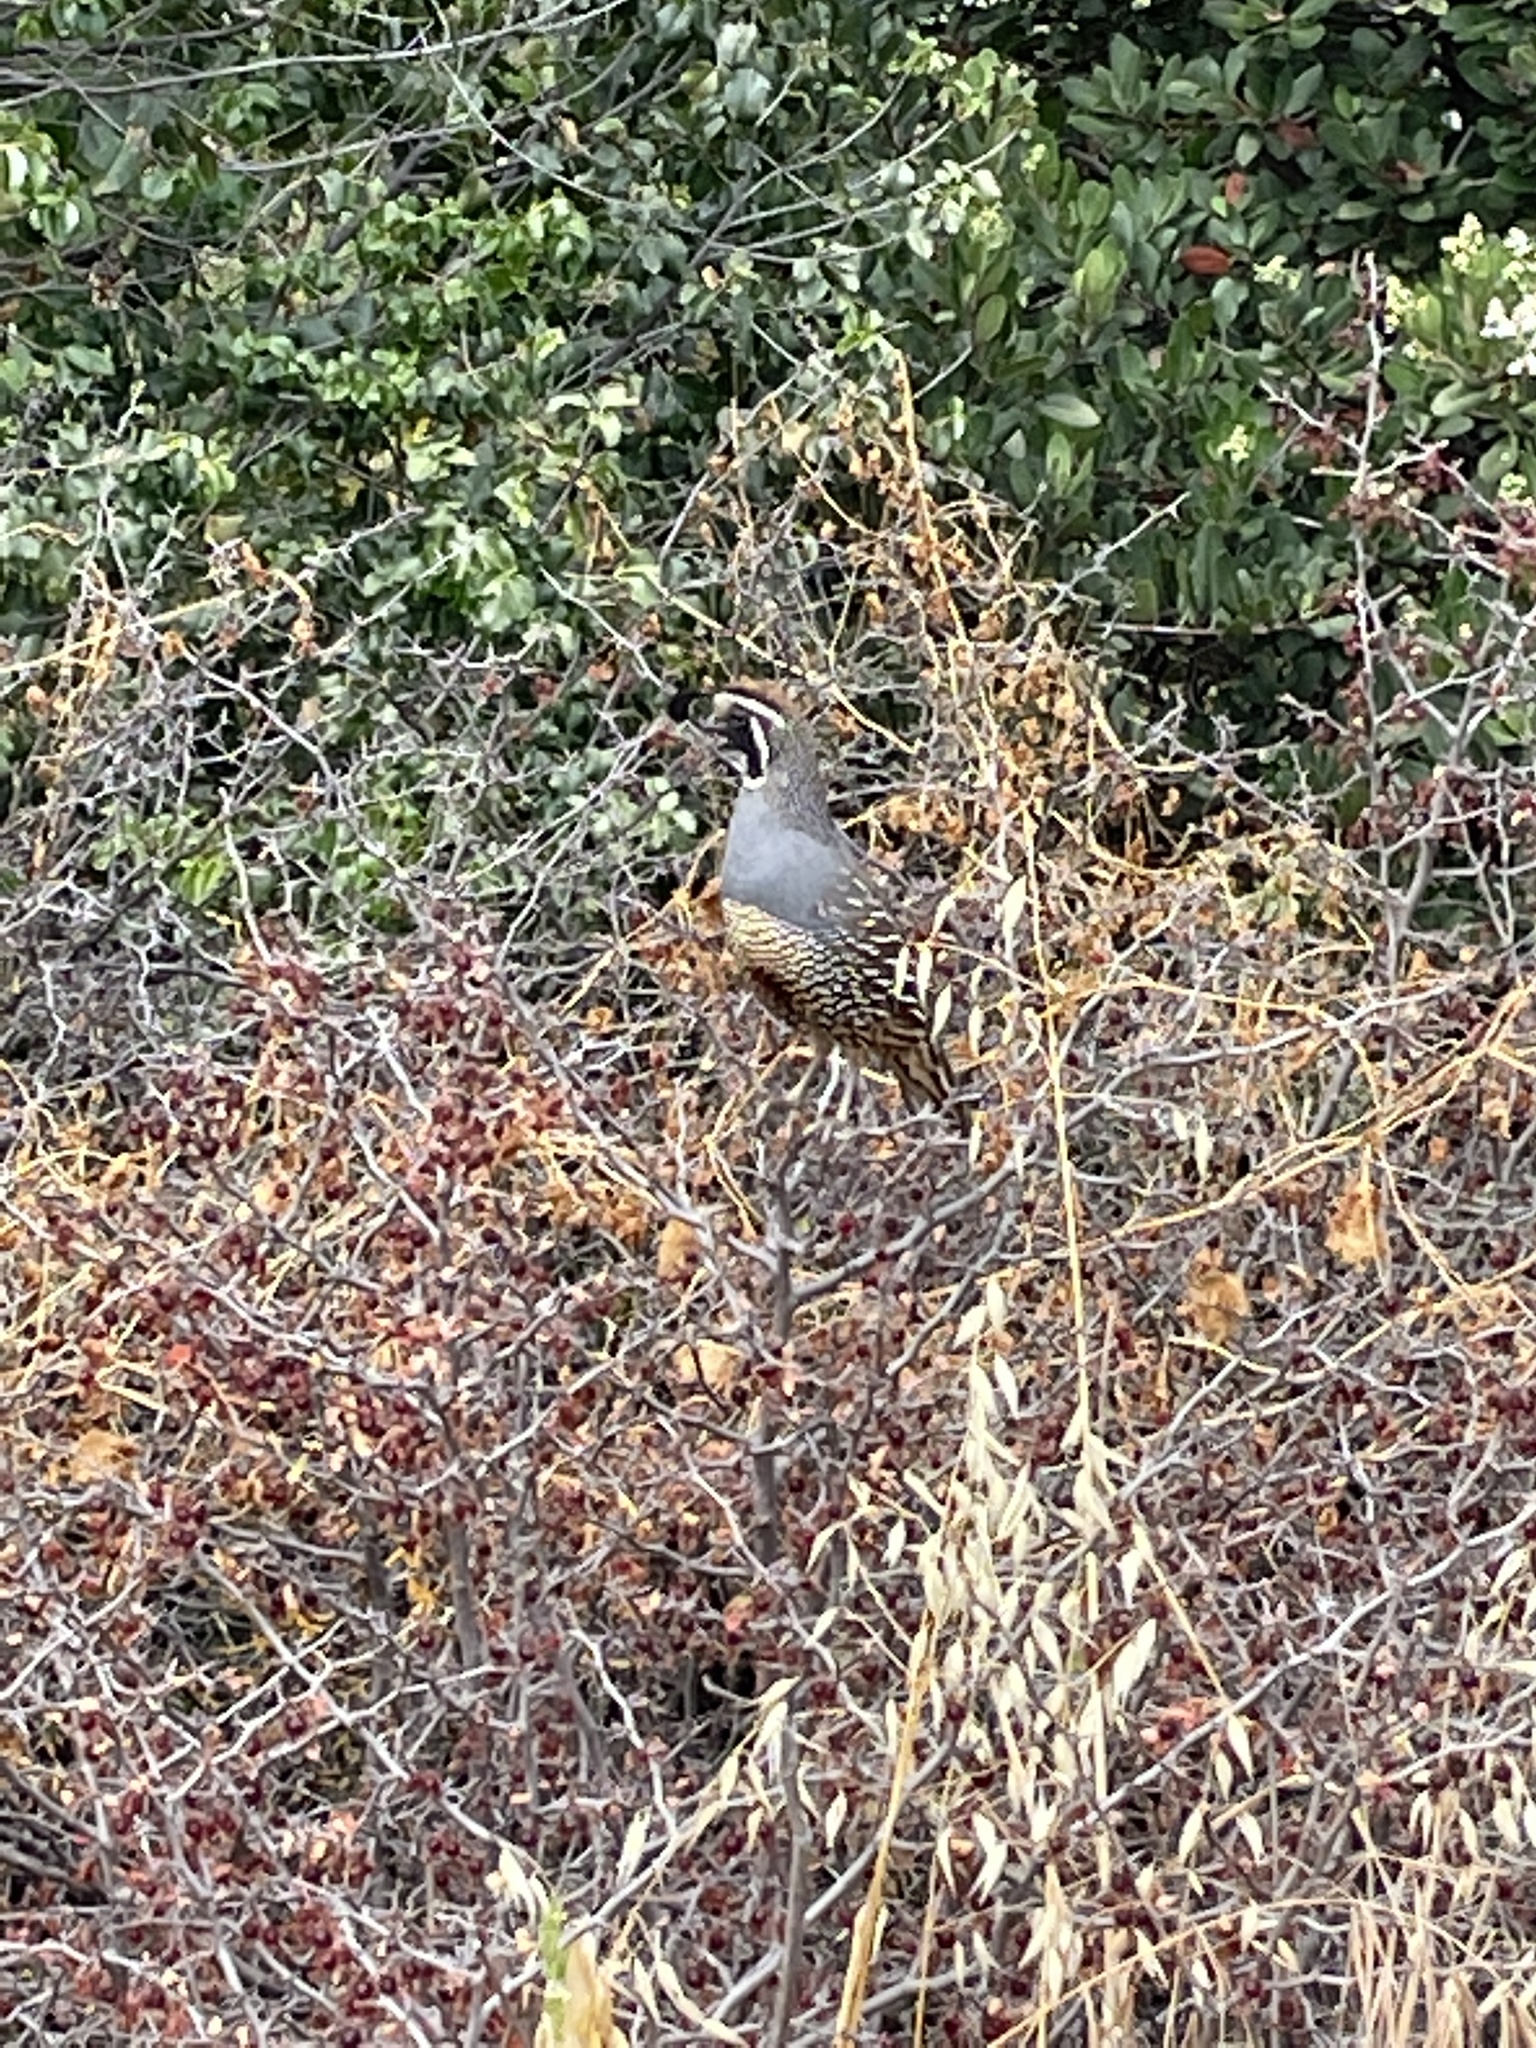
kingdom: Animalia
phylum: Chordata
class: Aves
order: Galliformes
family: Odontophoridae
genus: Callipepla
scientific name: Callipepla californica
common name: California quail
